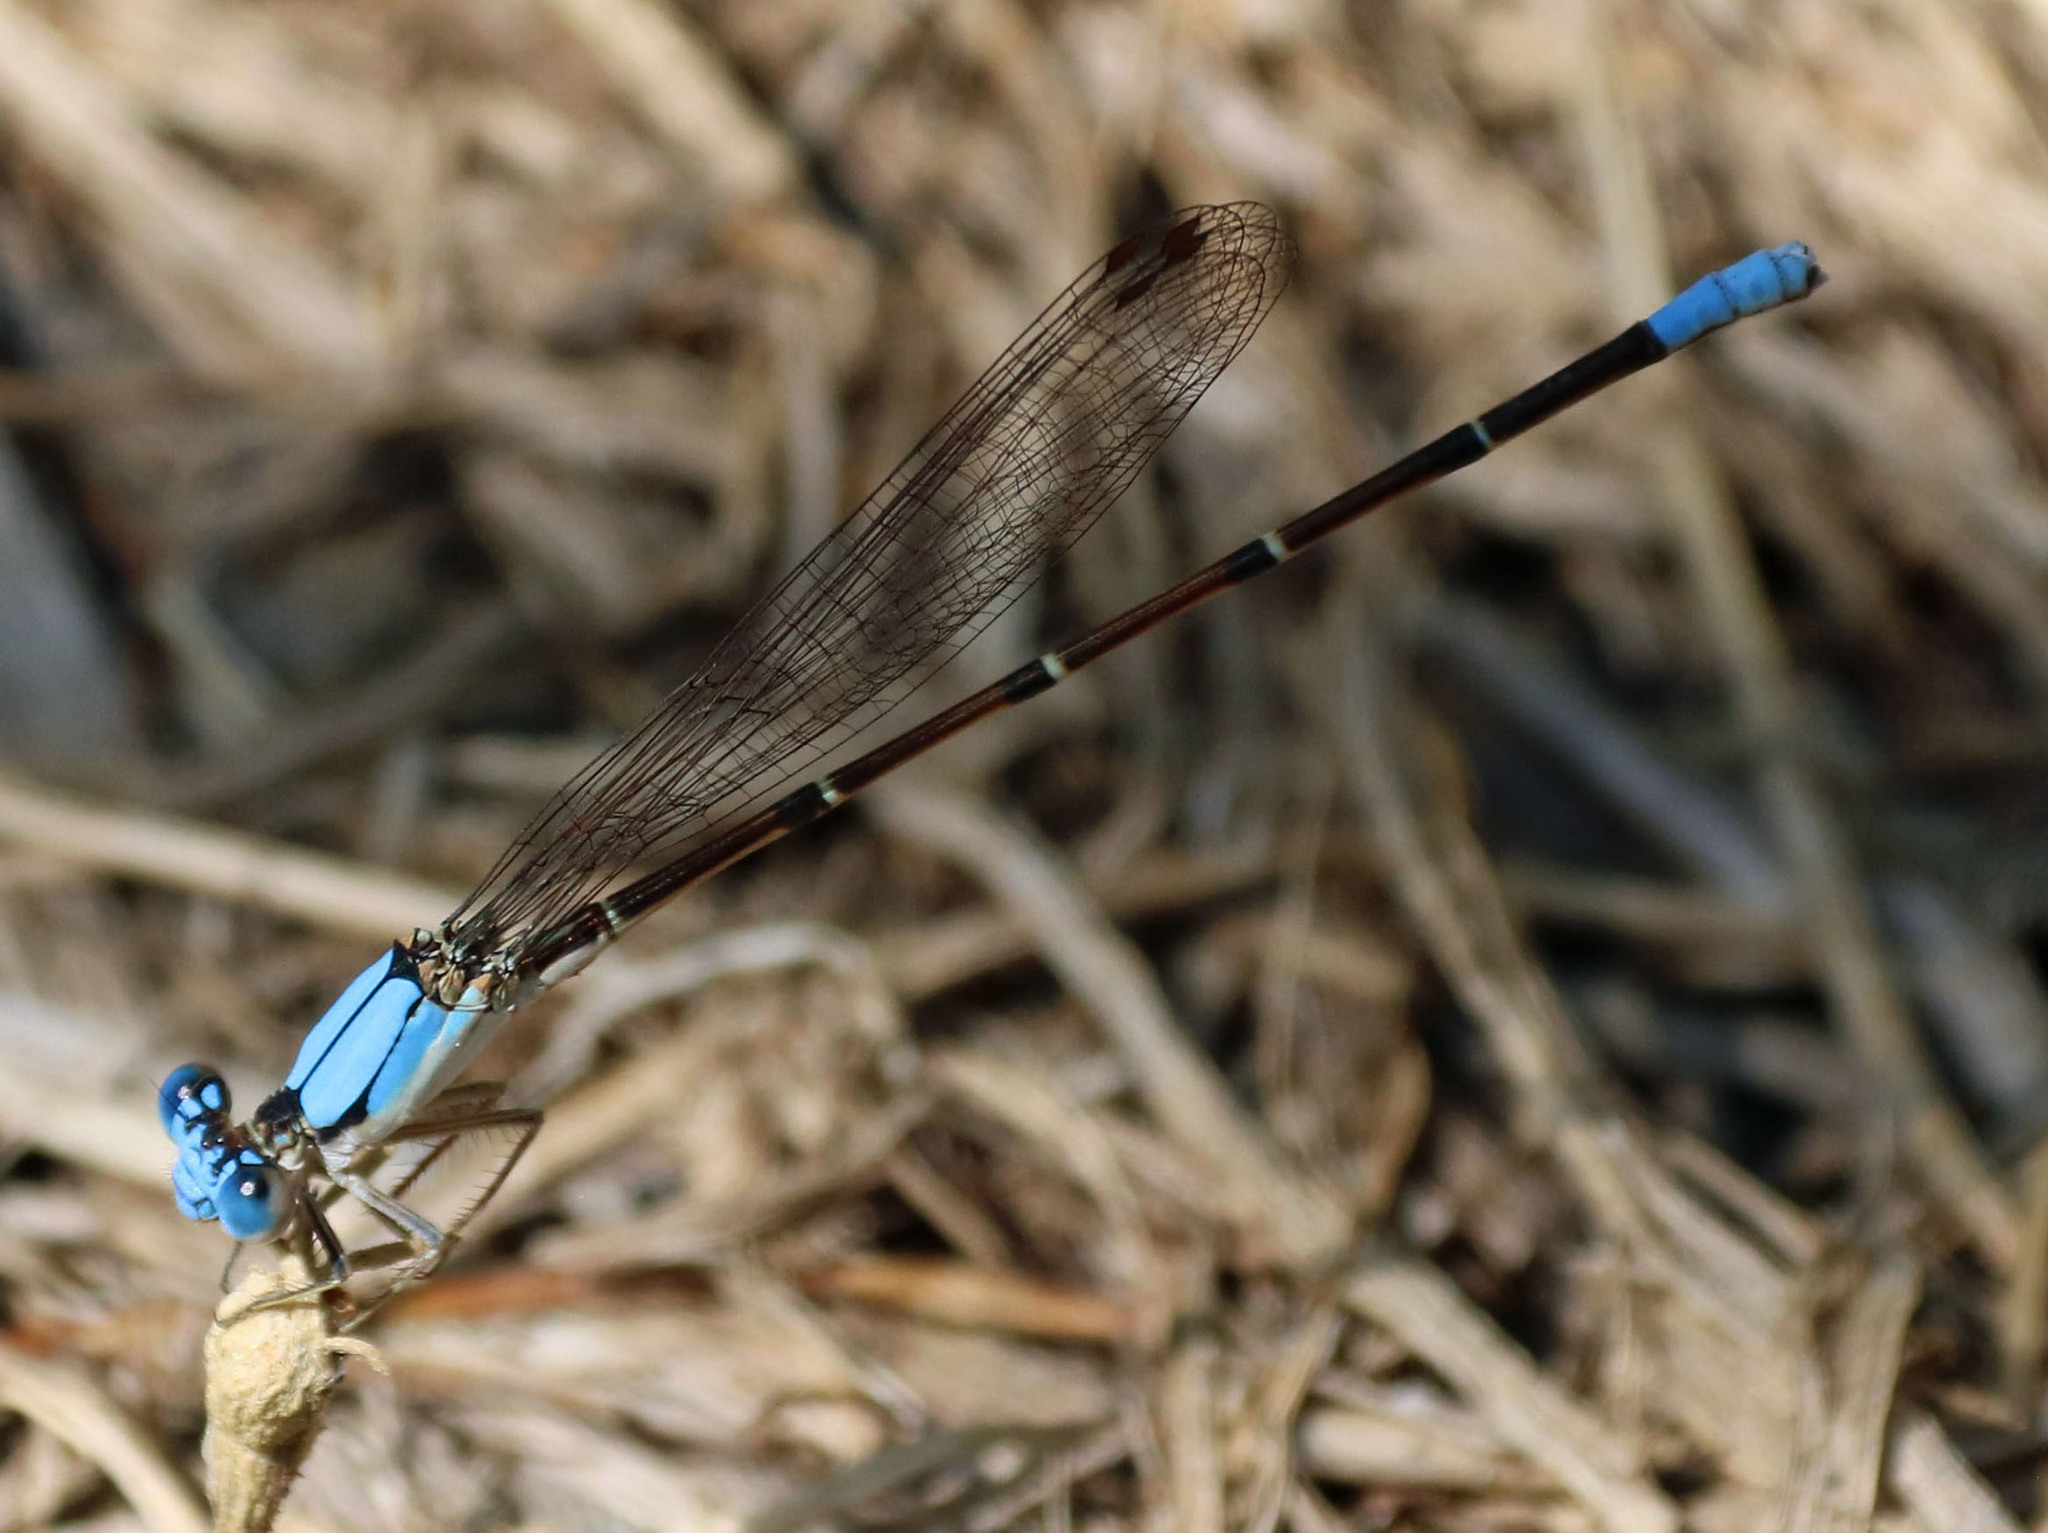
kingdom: Animalia
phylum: Arthropoda
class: Insecta
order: Odonata
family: Coenagrionidae
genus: Argia
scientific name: Argia apicalis
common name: Blue-fronted dancer
